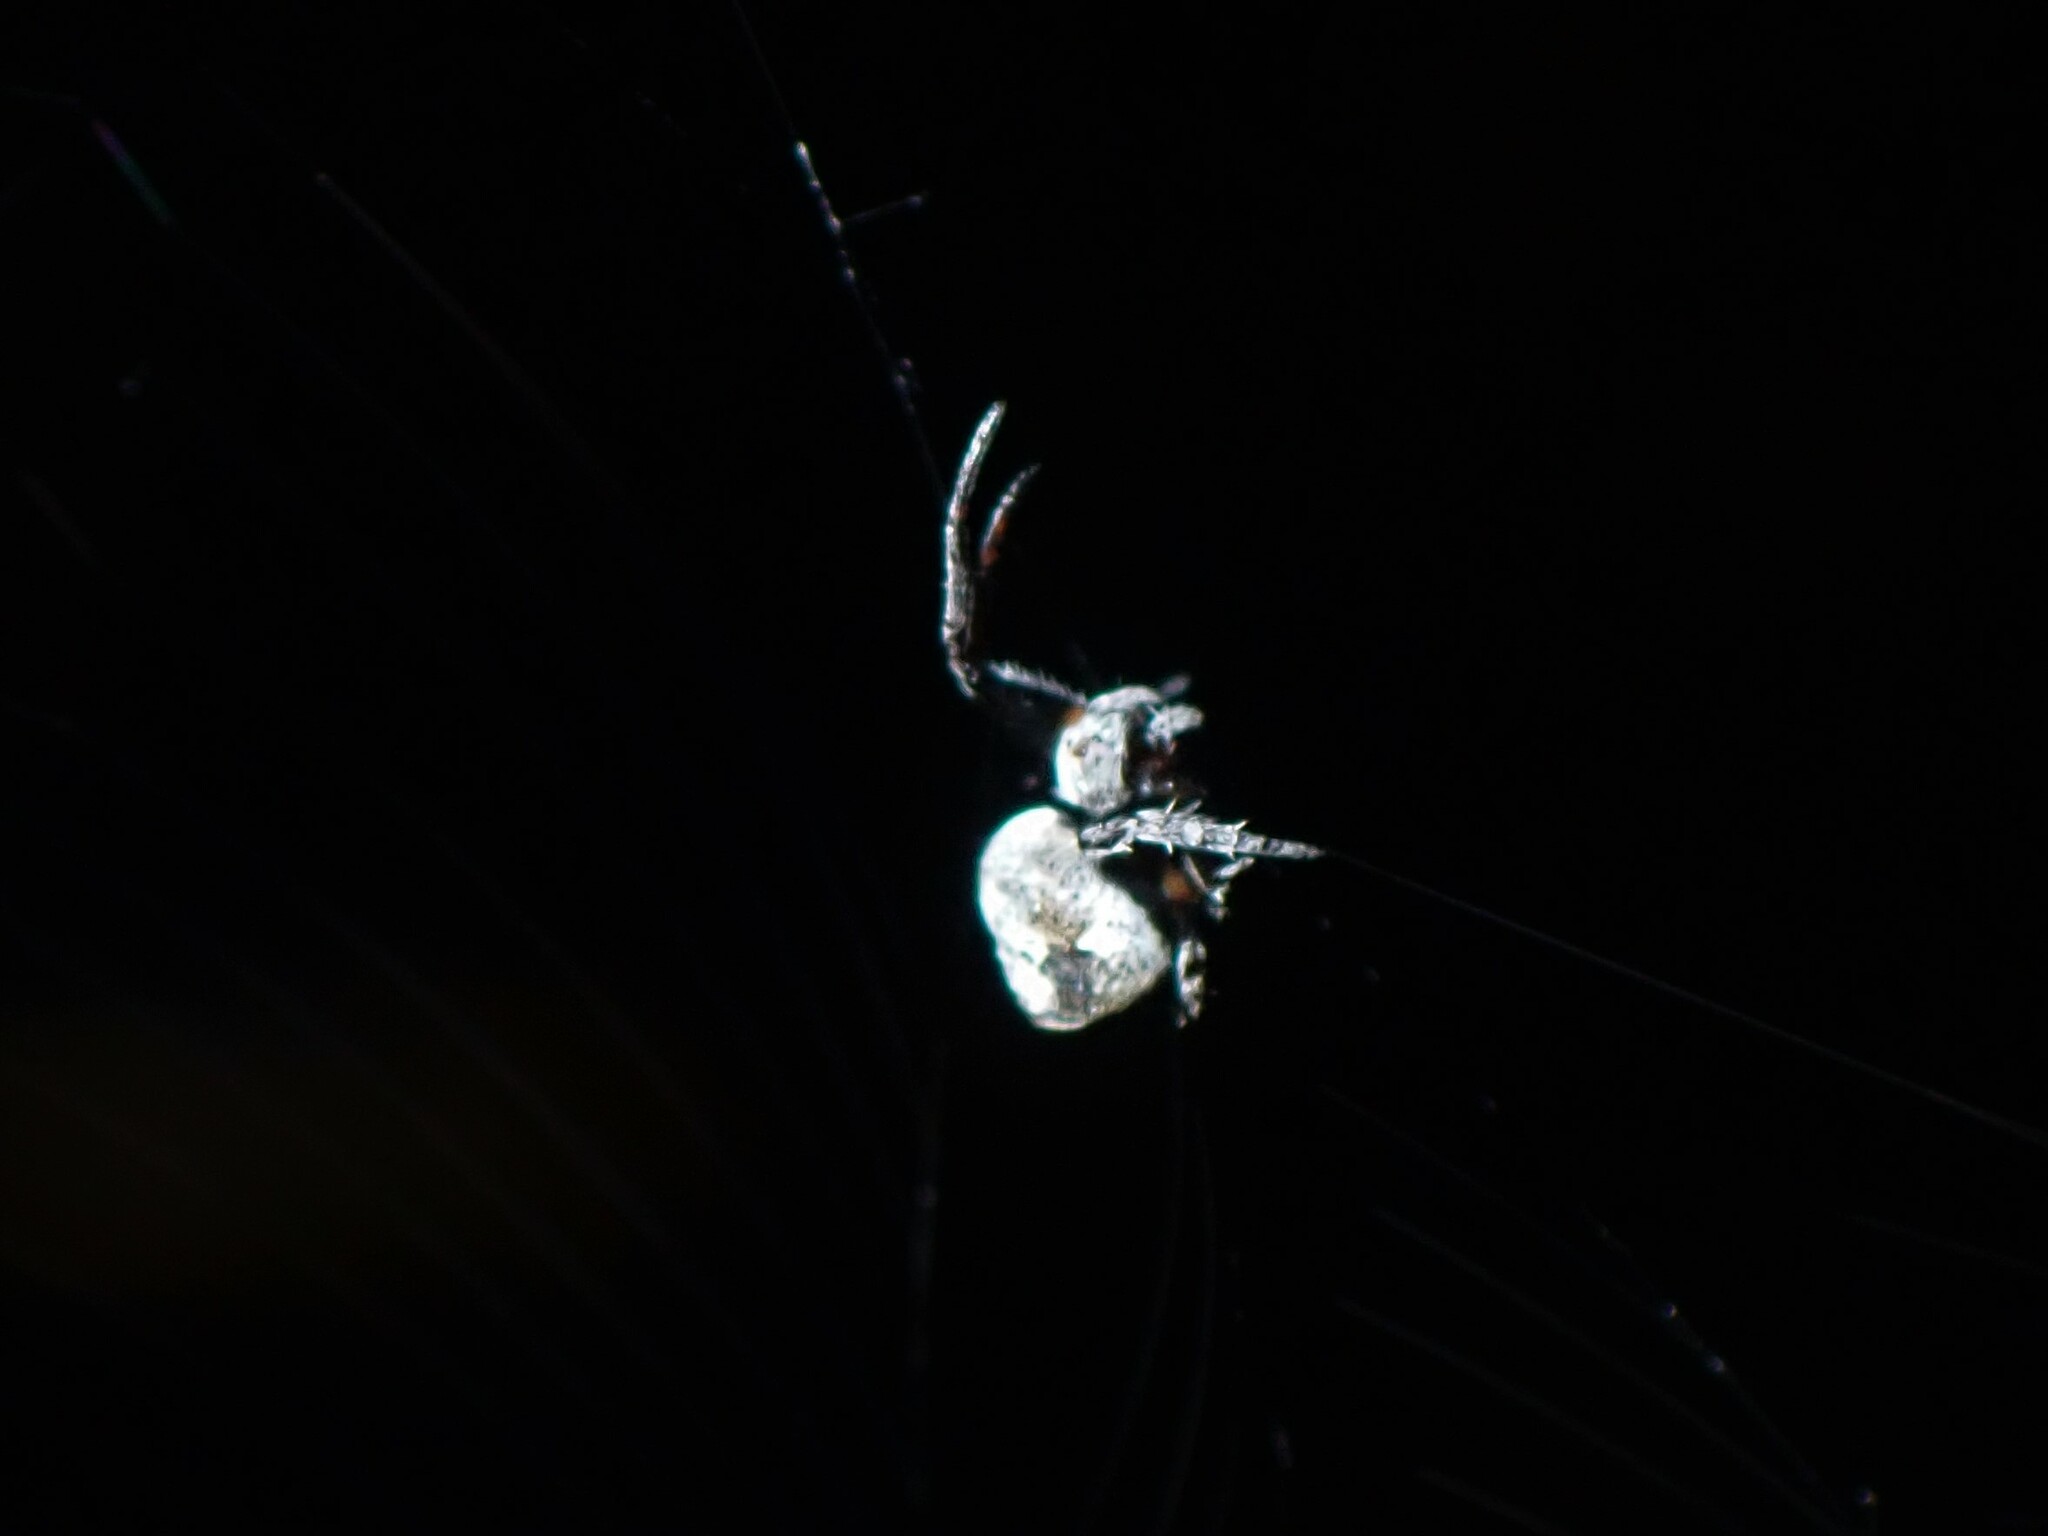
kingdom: Animalia
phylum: Arthropoda
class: Arachnida
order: Araneae
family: Araneidae
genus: Eriovixia
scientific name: Eriovixia excelsa
